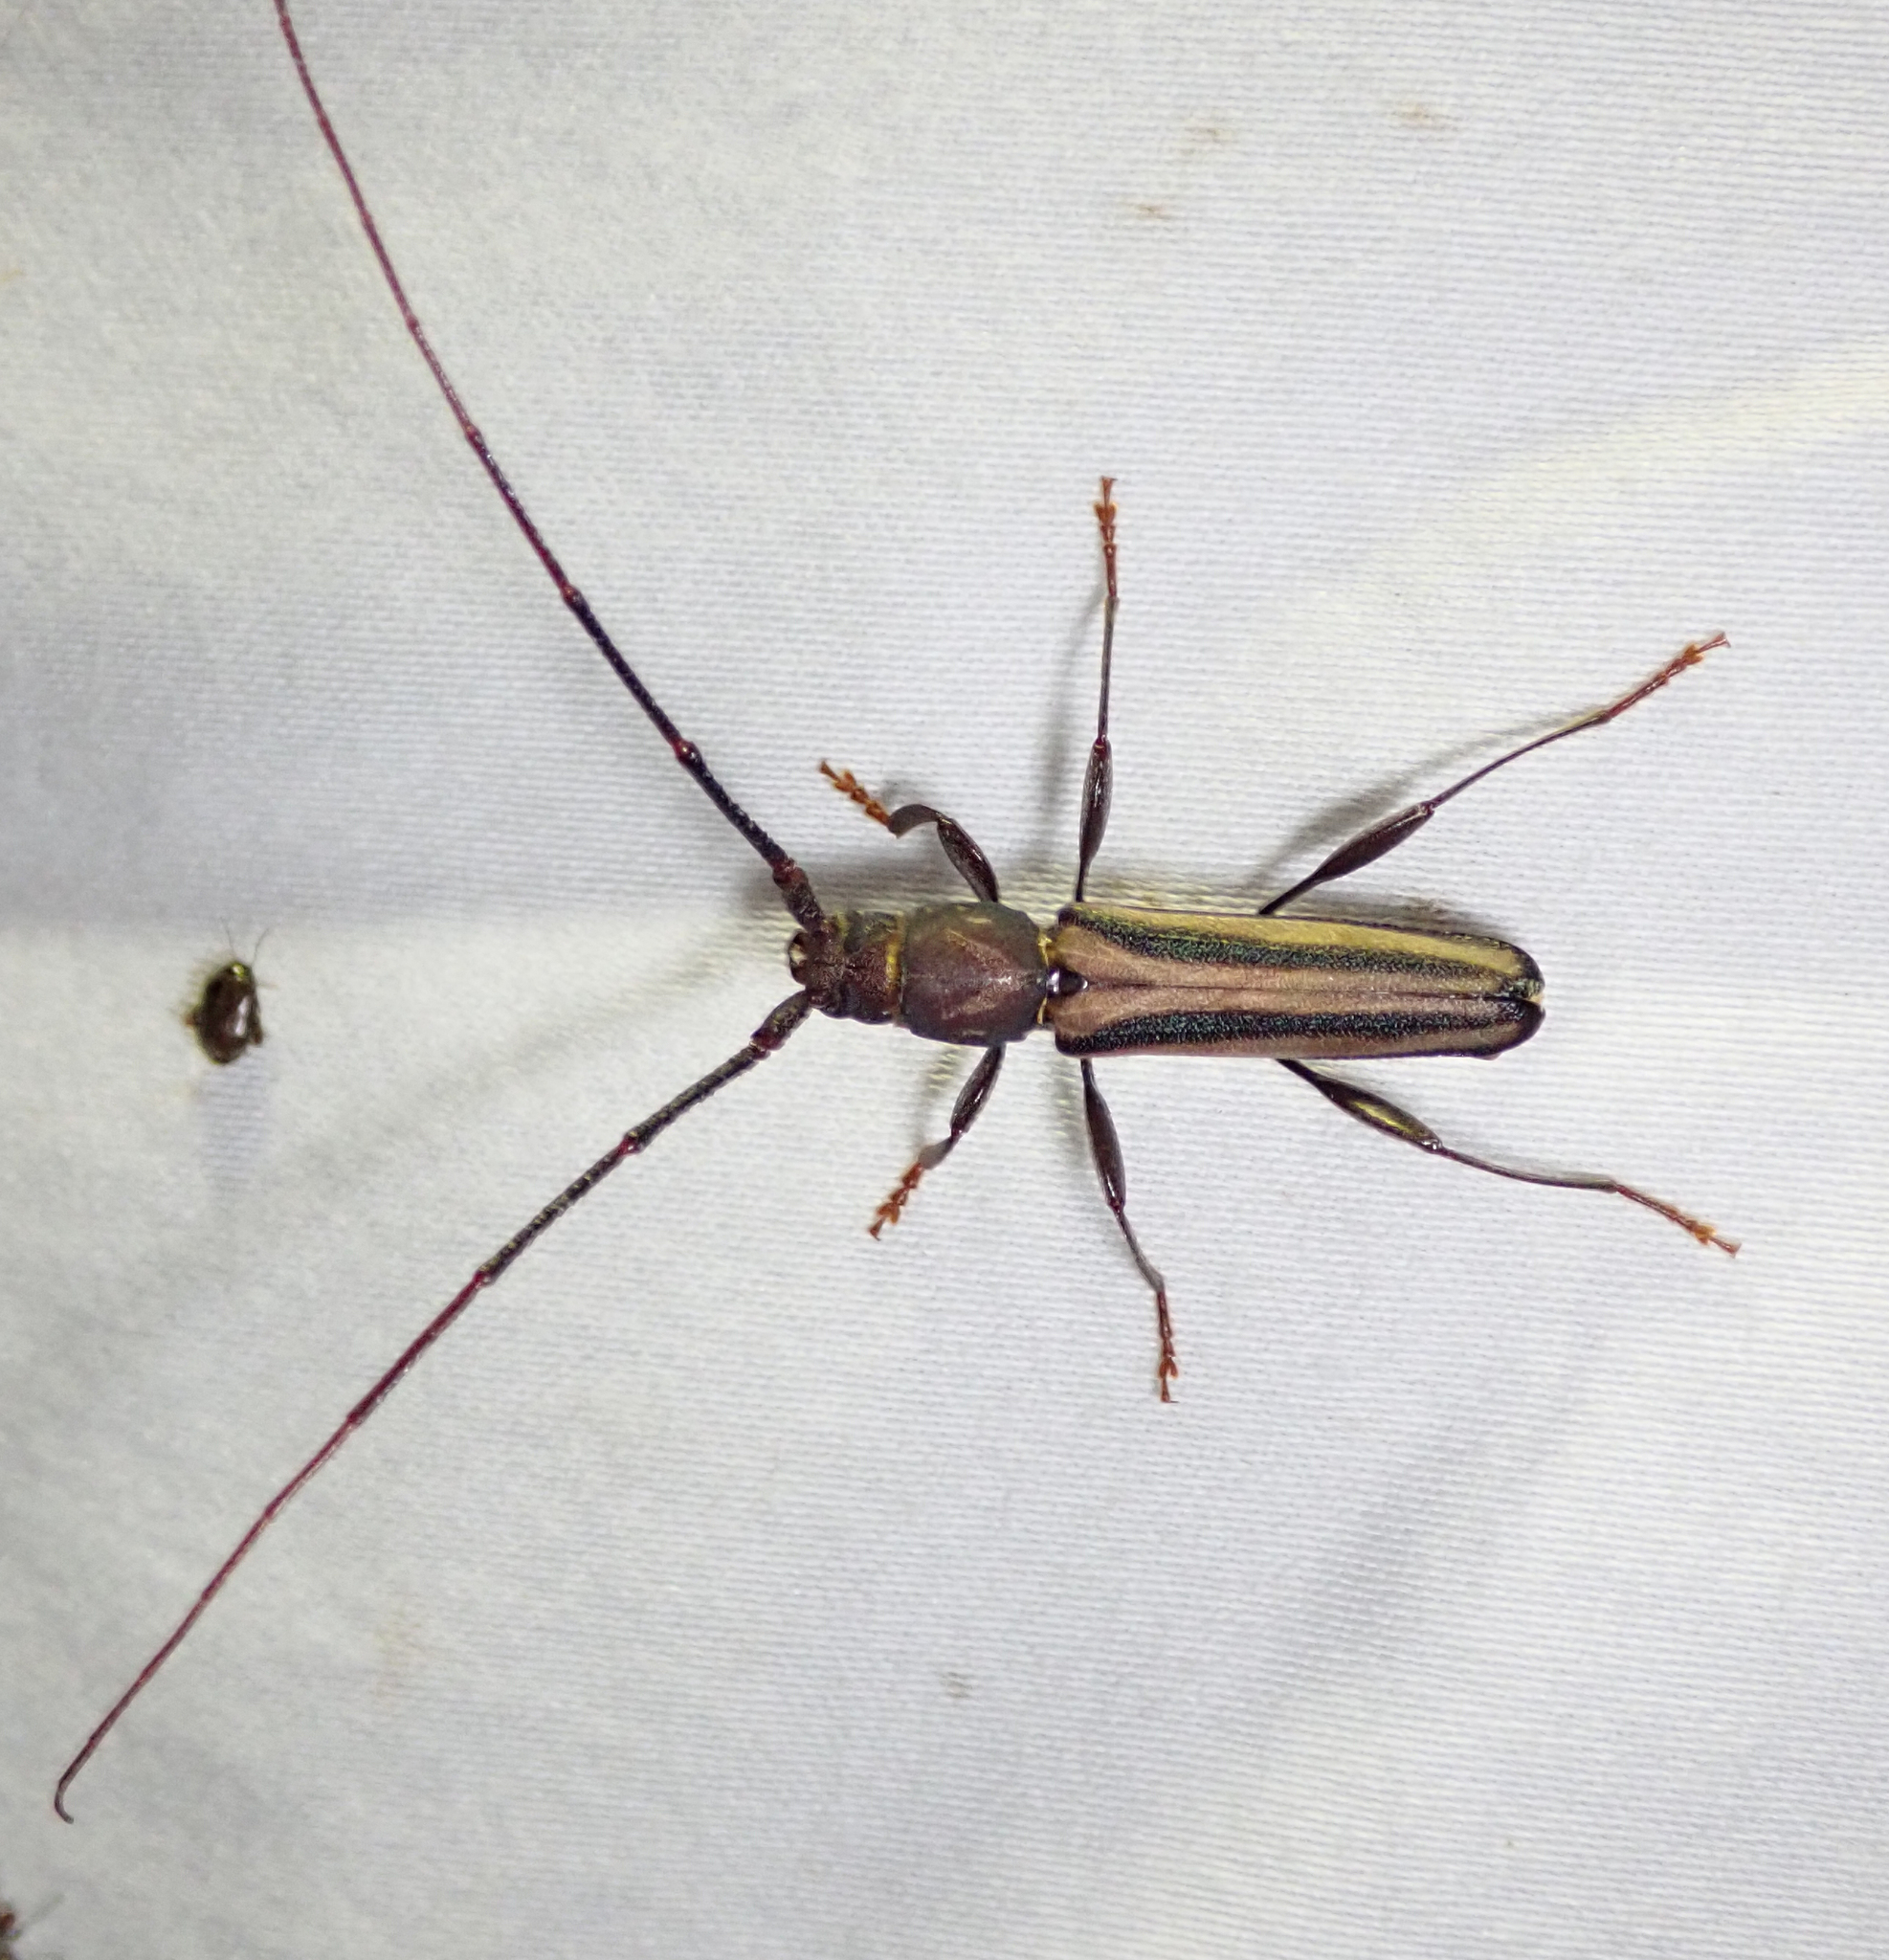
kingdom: Animalia
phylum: Arthropoda
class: Insecta
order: Coleoptera
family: Cerambycidae
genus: Xystrocera
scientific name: Xystrocera dispar
